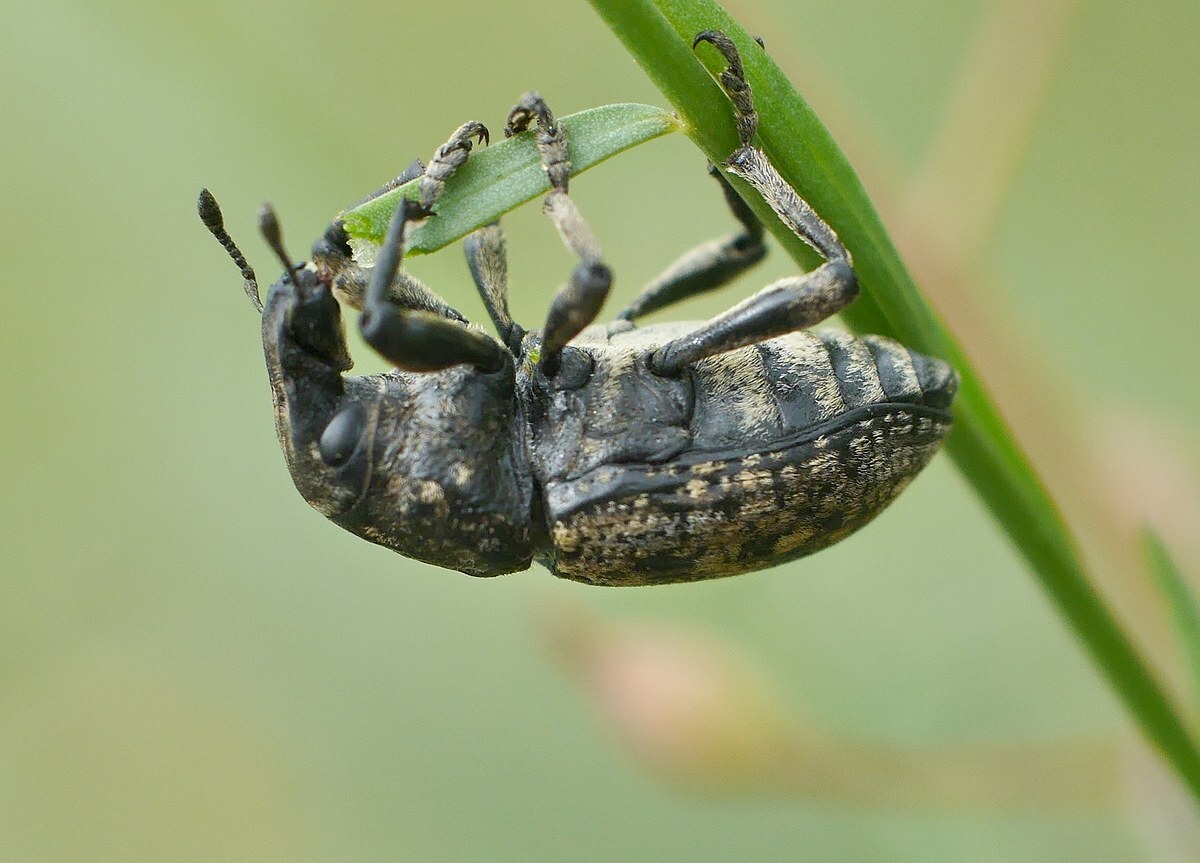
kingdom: Animalia
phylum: Arthropoda
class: Insecta
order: Coleoptera
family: Curculionidae
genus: Leucophyes
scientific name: Leucophyes pedestris
